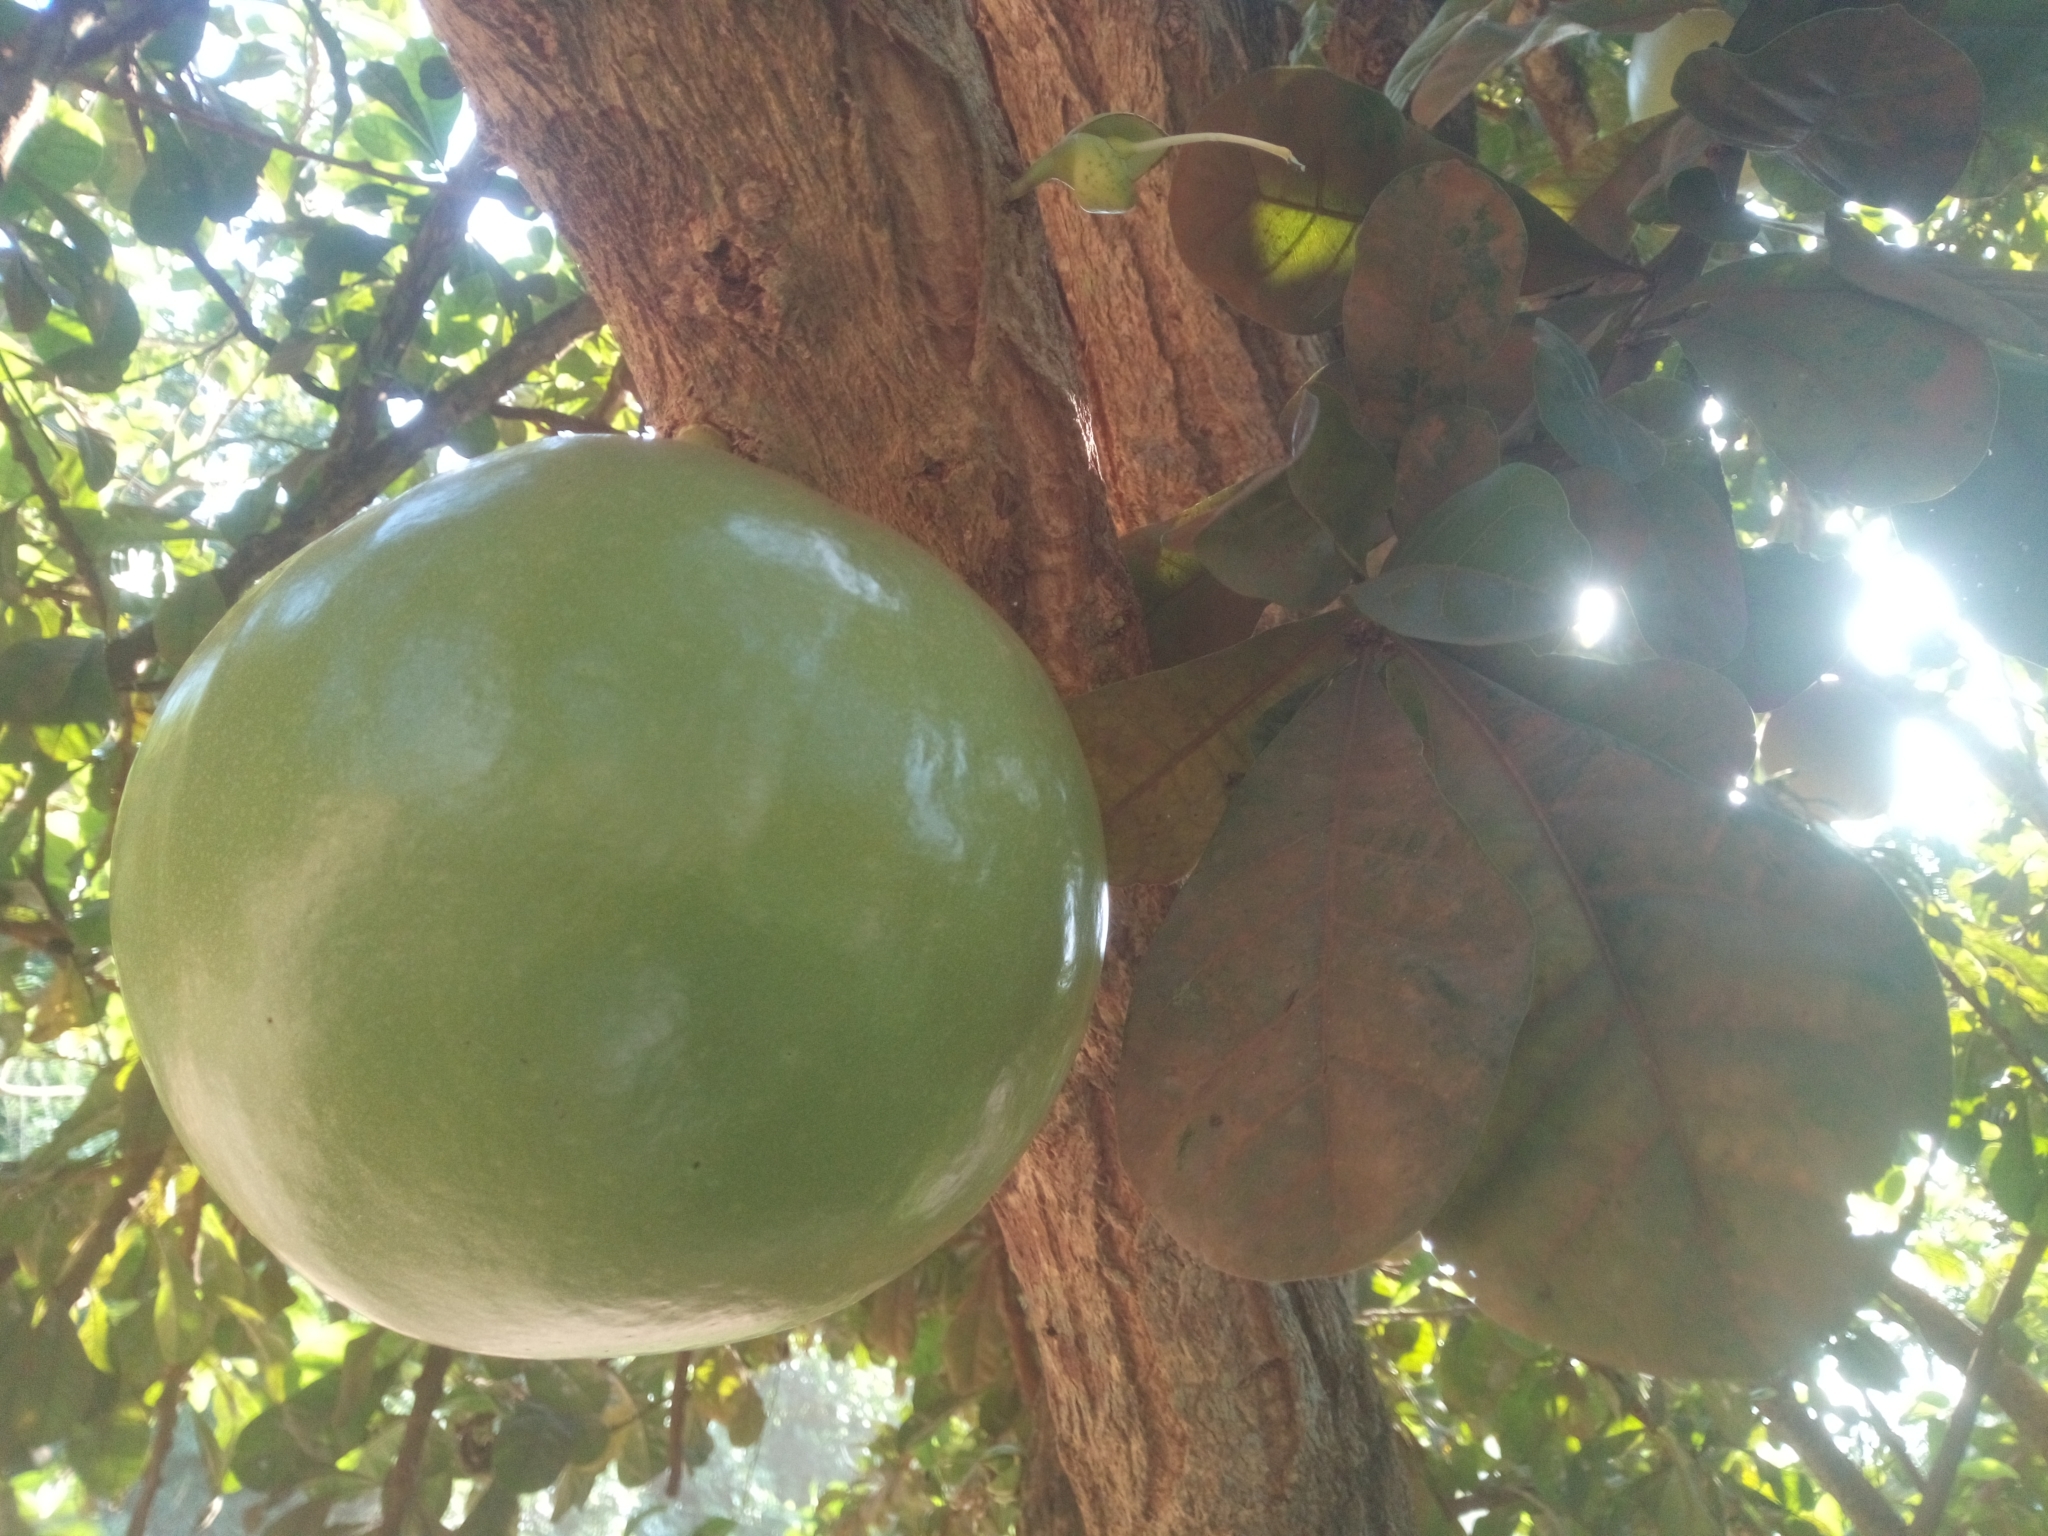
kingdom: Plantae
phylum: Tracheophyta
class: Magnoliopsida
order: Lamiales
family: Bignoniaceae
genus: Crescentia
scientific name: Crescentia cujete
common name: Calabash
